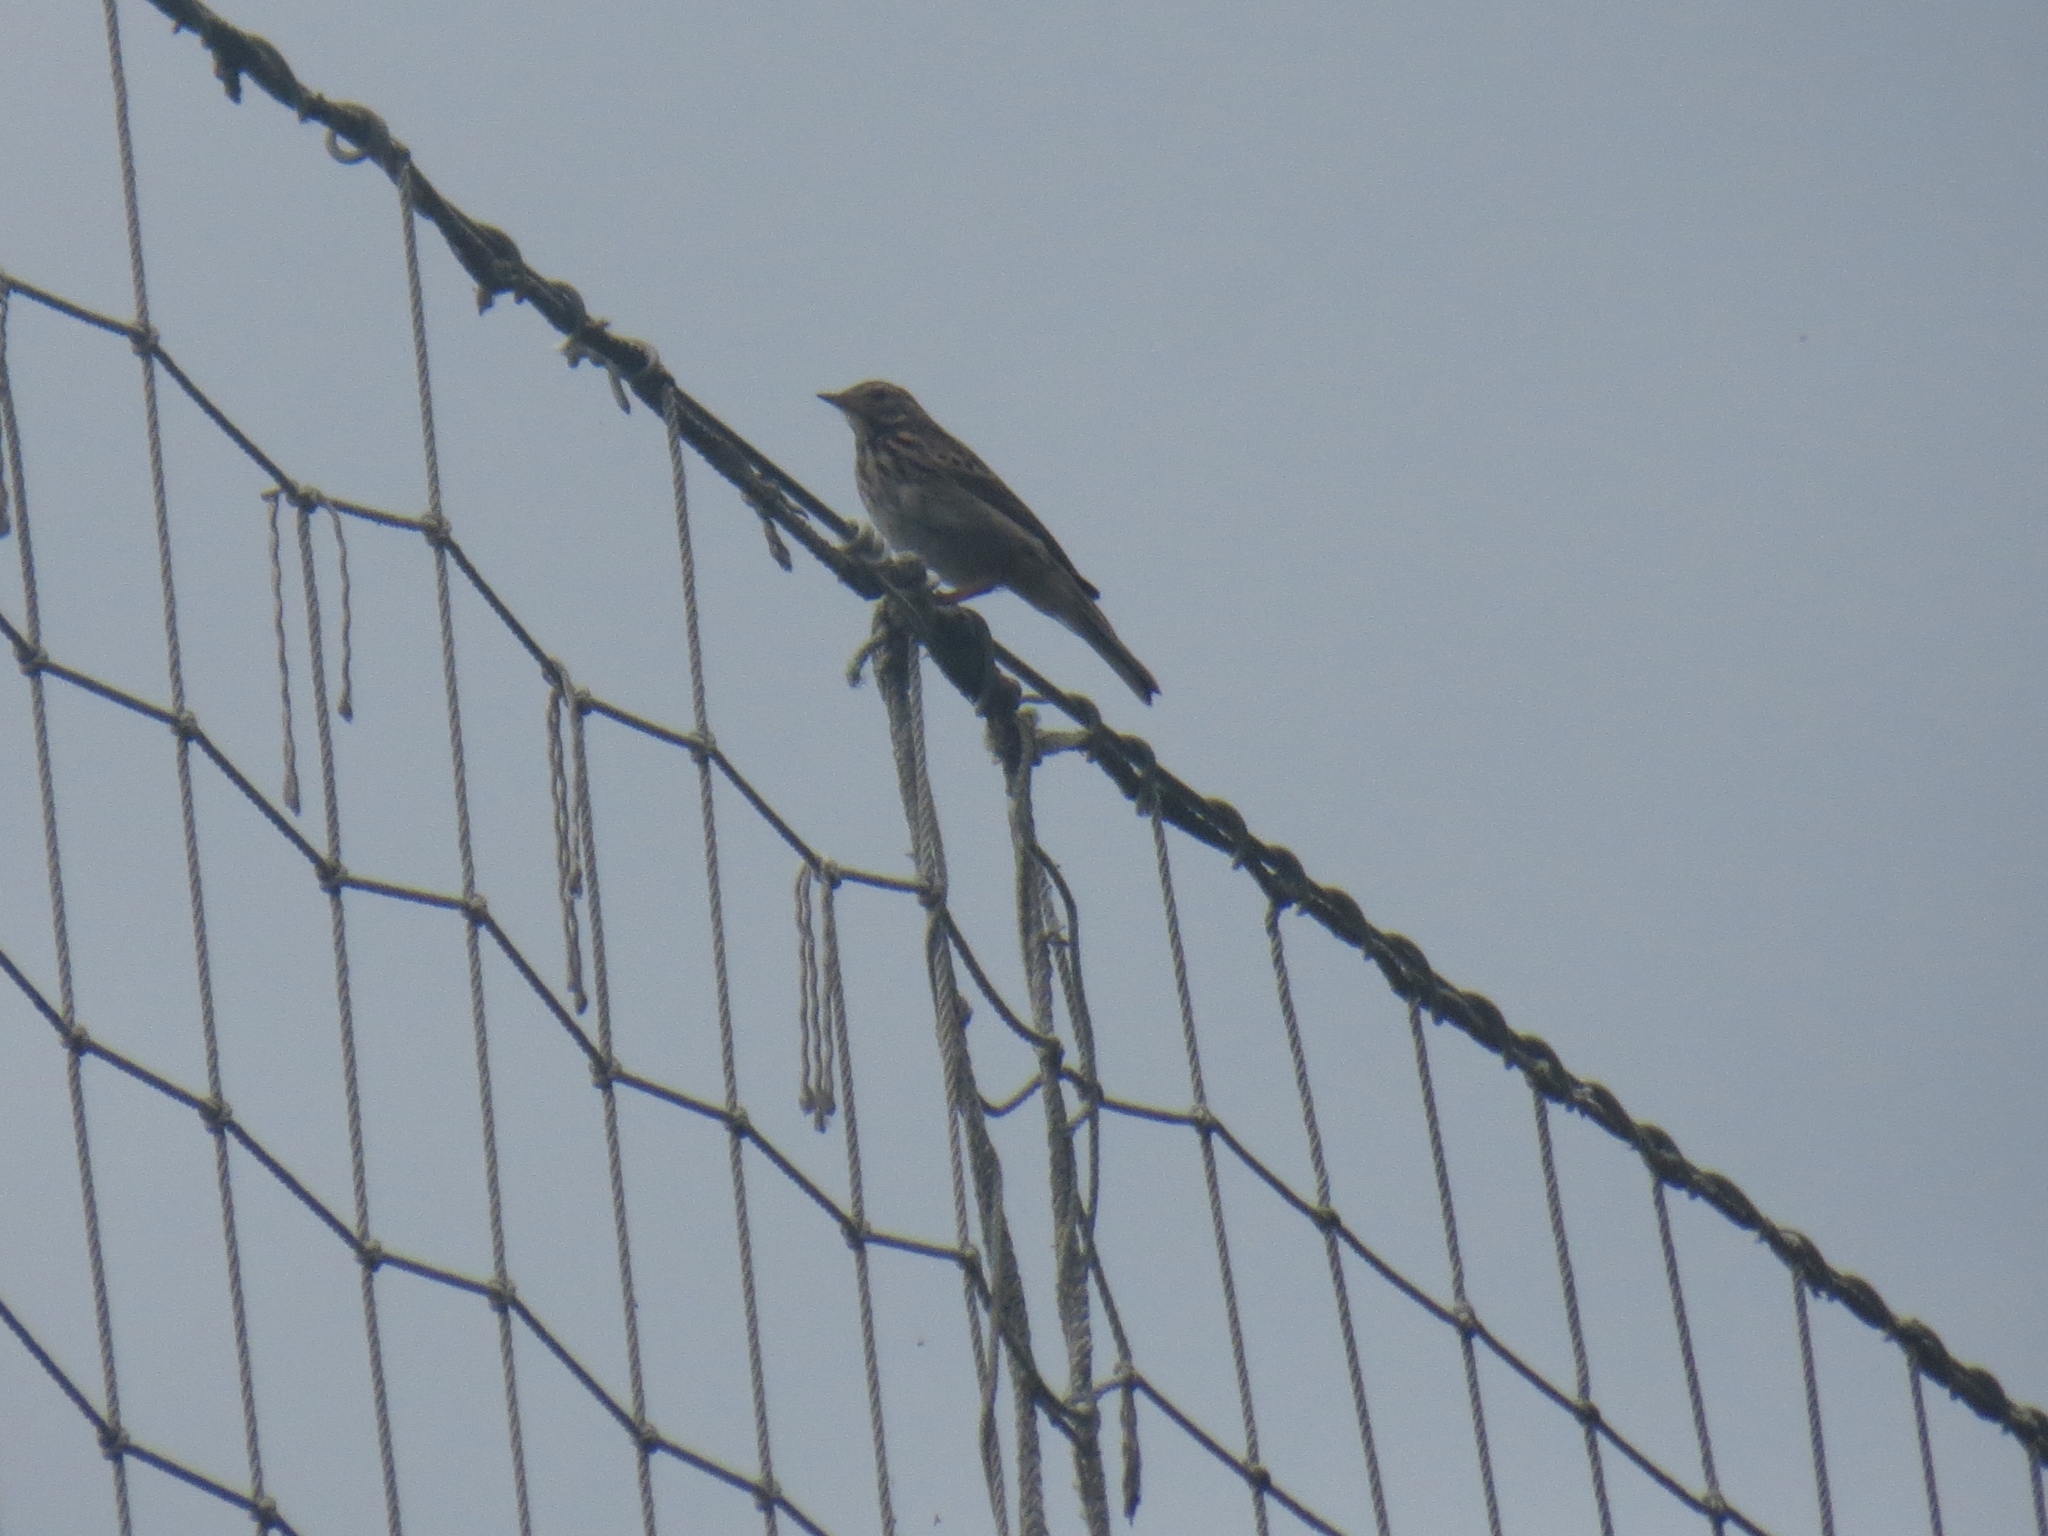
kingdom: Animalia
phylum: Chordata
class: Aves
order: Passeriformes
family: Motacillidae
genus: Anthus
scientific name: Anthus trivialis
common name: Tree pipit
